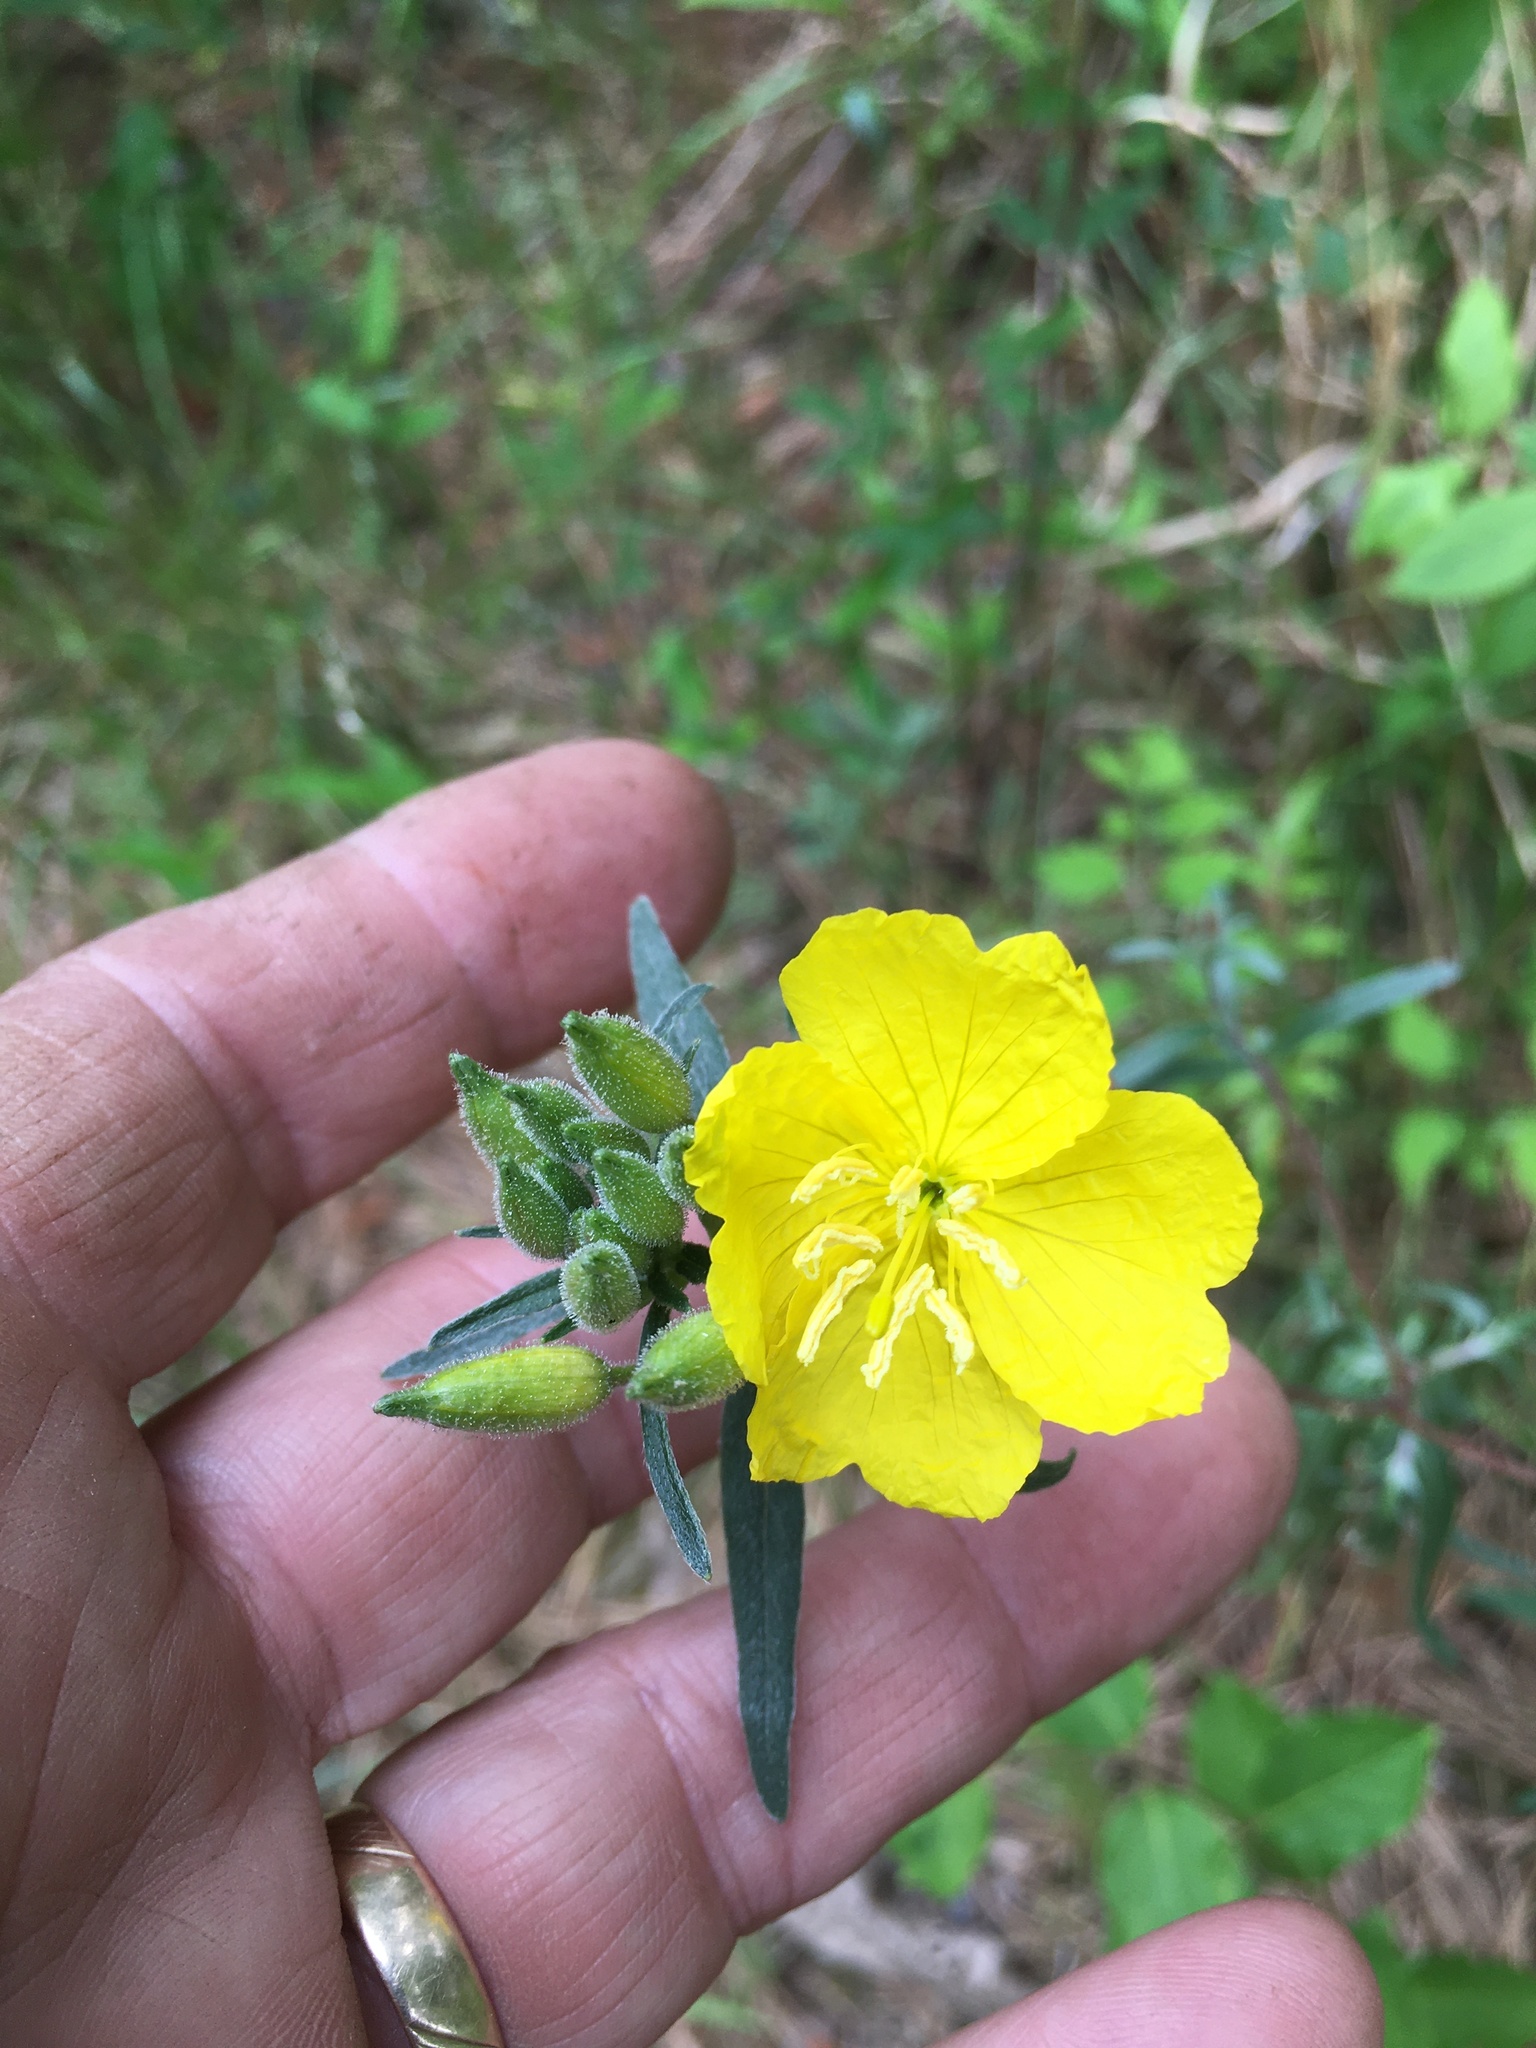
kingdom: Plantae
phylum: Tracheophyta
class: Magnoliopsida
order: Myrtales
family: Onagraceae
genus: Oenothera
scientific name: Oenothera fruticosa
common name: Southern sundrops
